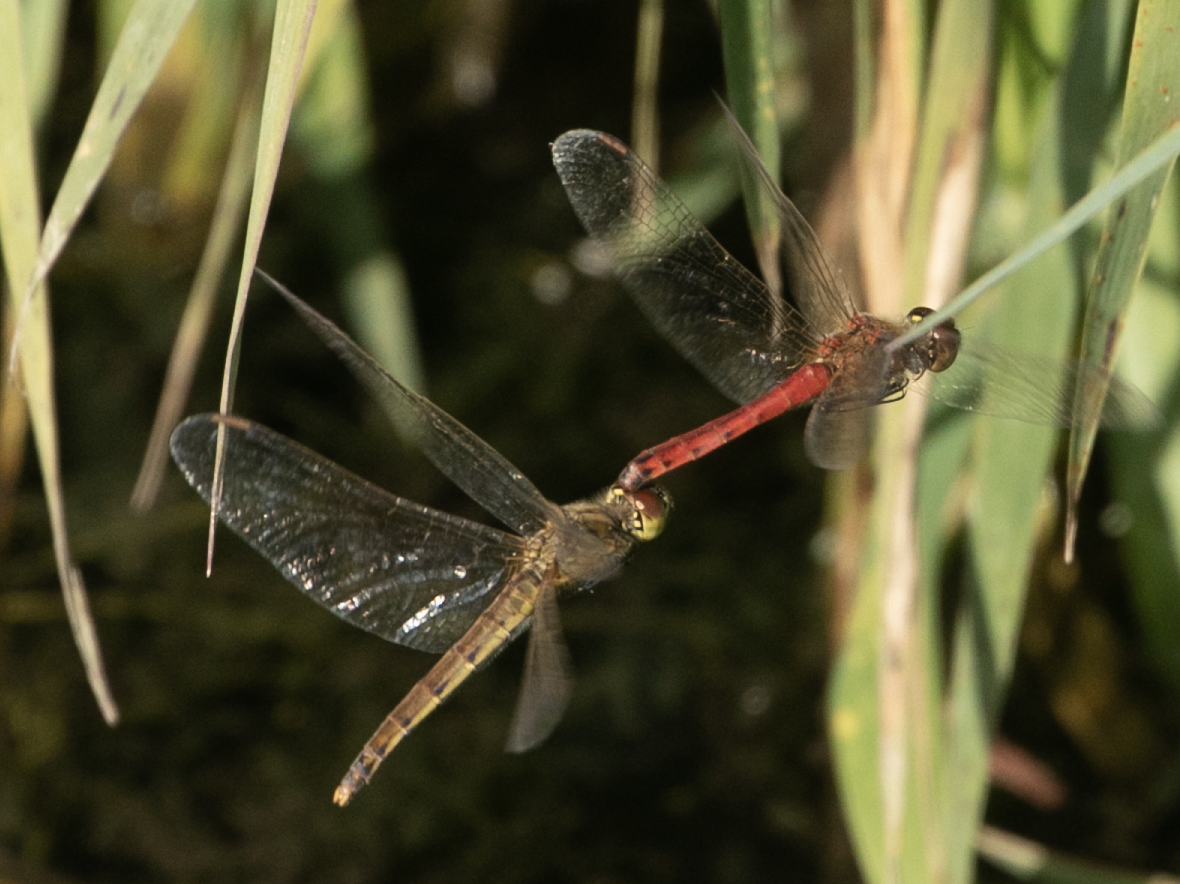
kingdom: Animalia
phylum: Arthropoda
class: Insecta
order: Odonata
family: Libellulidae
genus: Sympetrum
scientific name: Sympetrum depressiusculum
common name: Spotted darter
